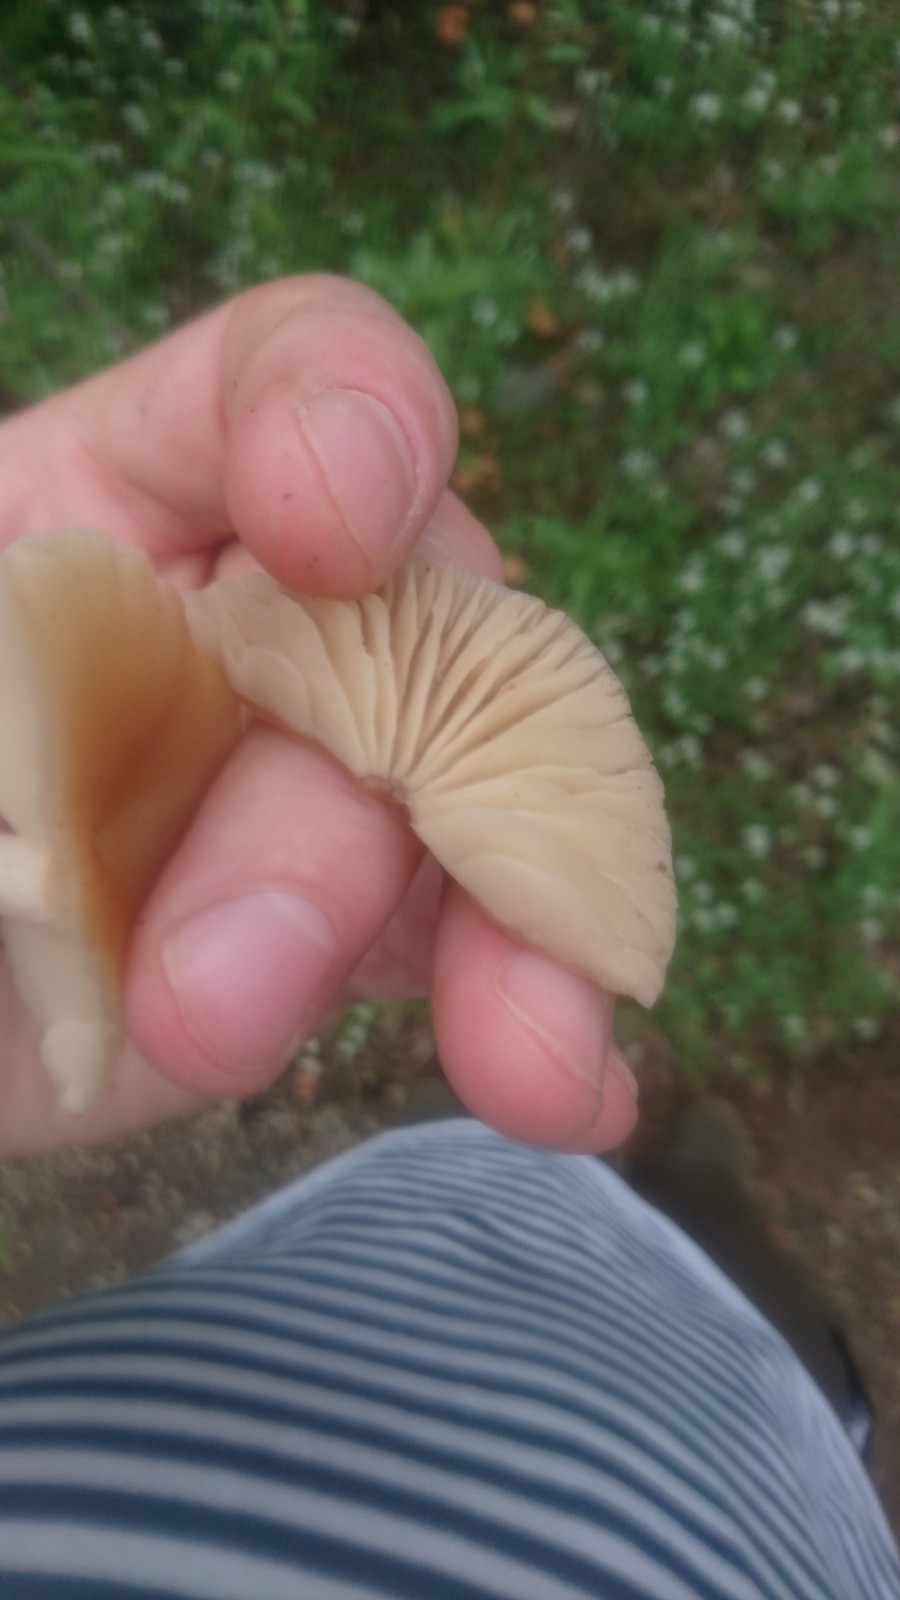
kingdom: Fungi
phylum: Basidiomycota
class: Agaricomycetes
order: Agaricales
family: Marasmiaceae
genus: Marasmius
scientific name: Marasmius oreades
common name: Fairy ring champignon
